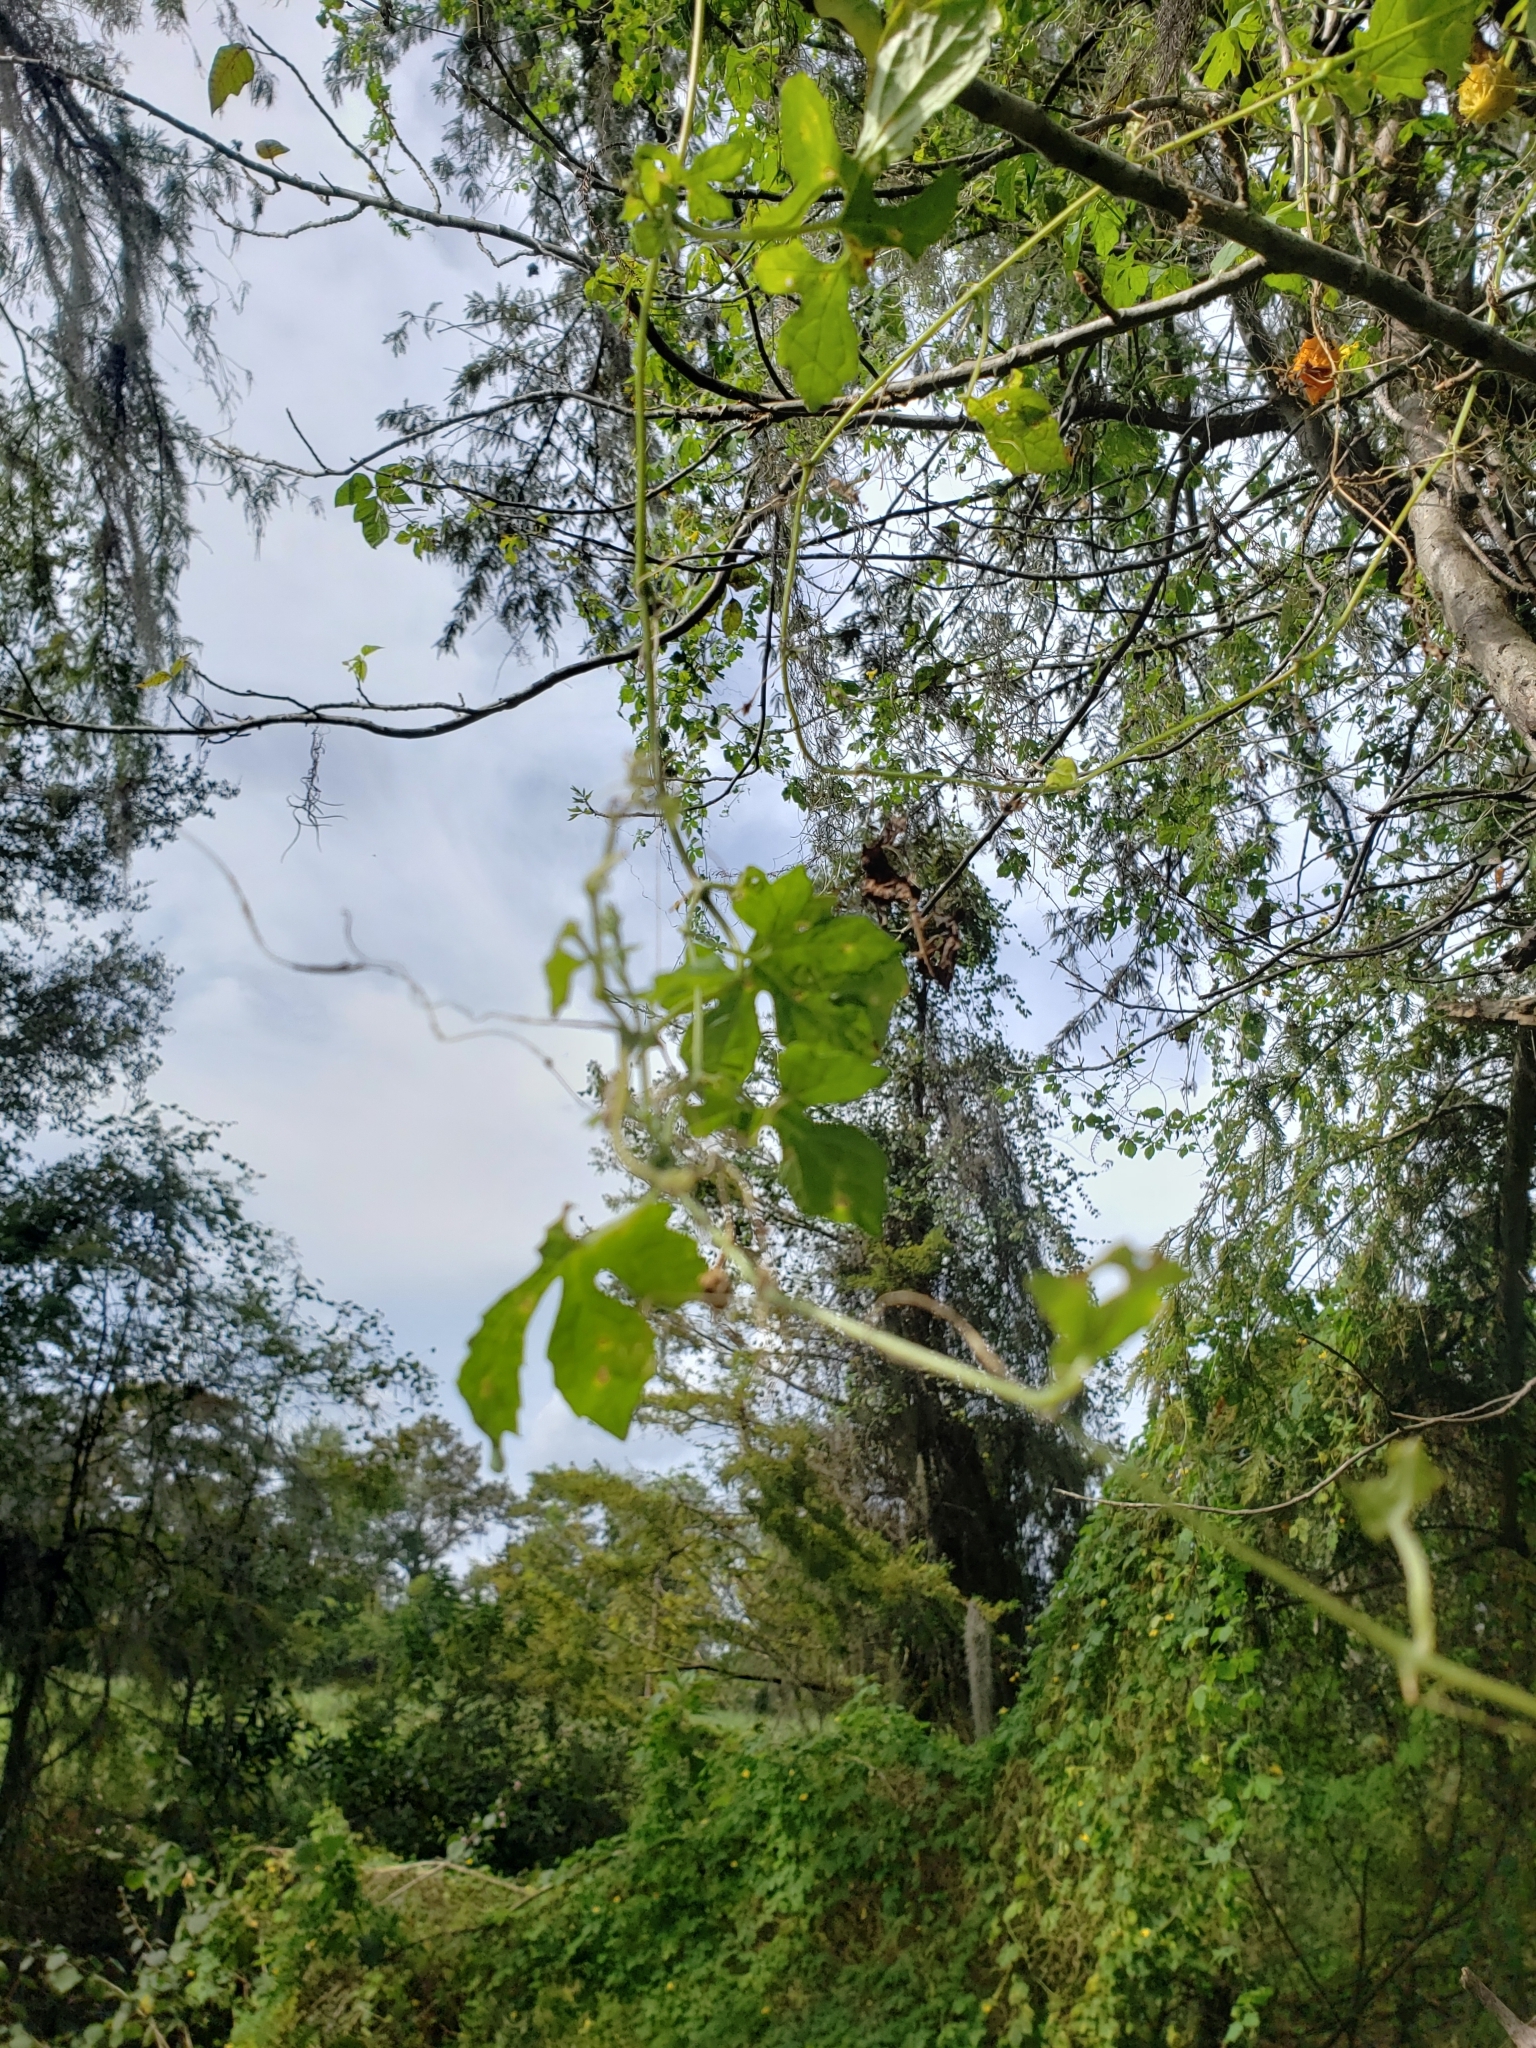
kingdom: Plantae
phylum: Tracheophyta
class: Magnoliopsida
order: Cucurbitales
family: Cucurbitaceae
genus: Momordica
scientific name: Momordica charantia
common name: Balsampear
